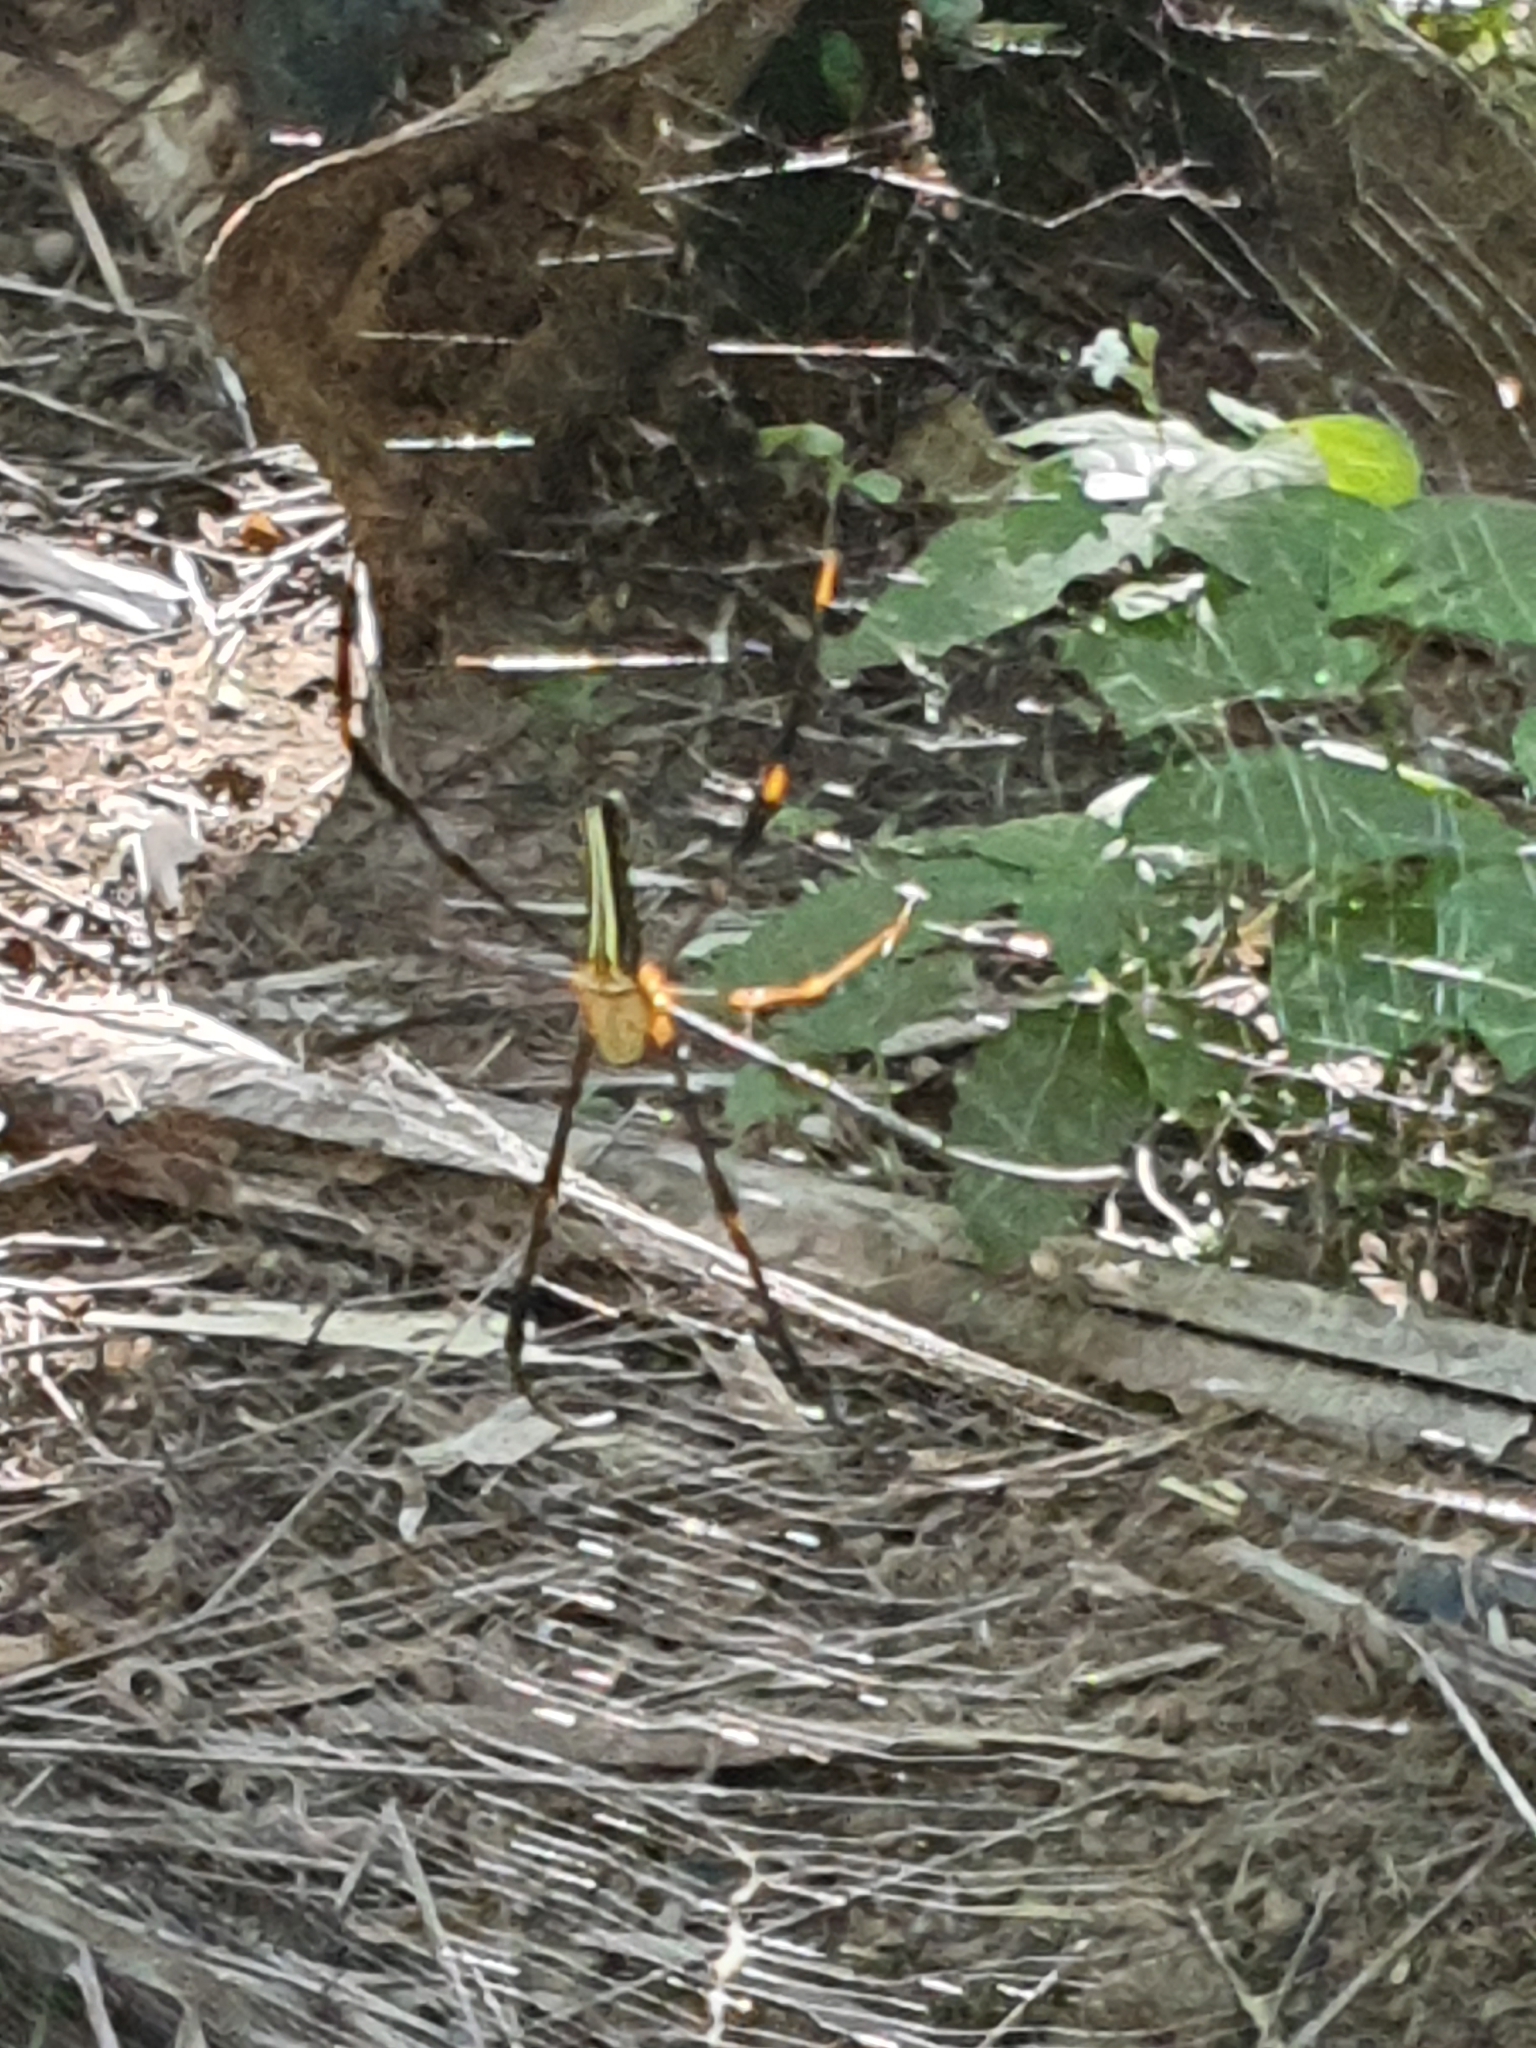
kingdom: Animalia
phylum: Arthropoda
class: Arachnida
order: Araneae
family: Araneidae
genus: Nephila
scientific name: Nephila pilipes
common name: Giant golden orb weaver
